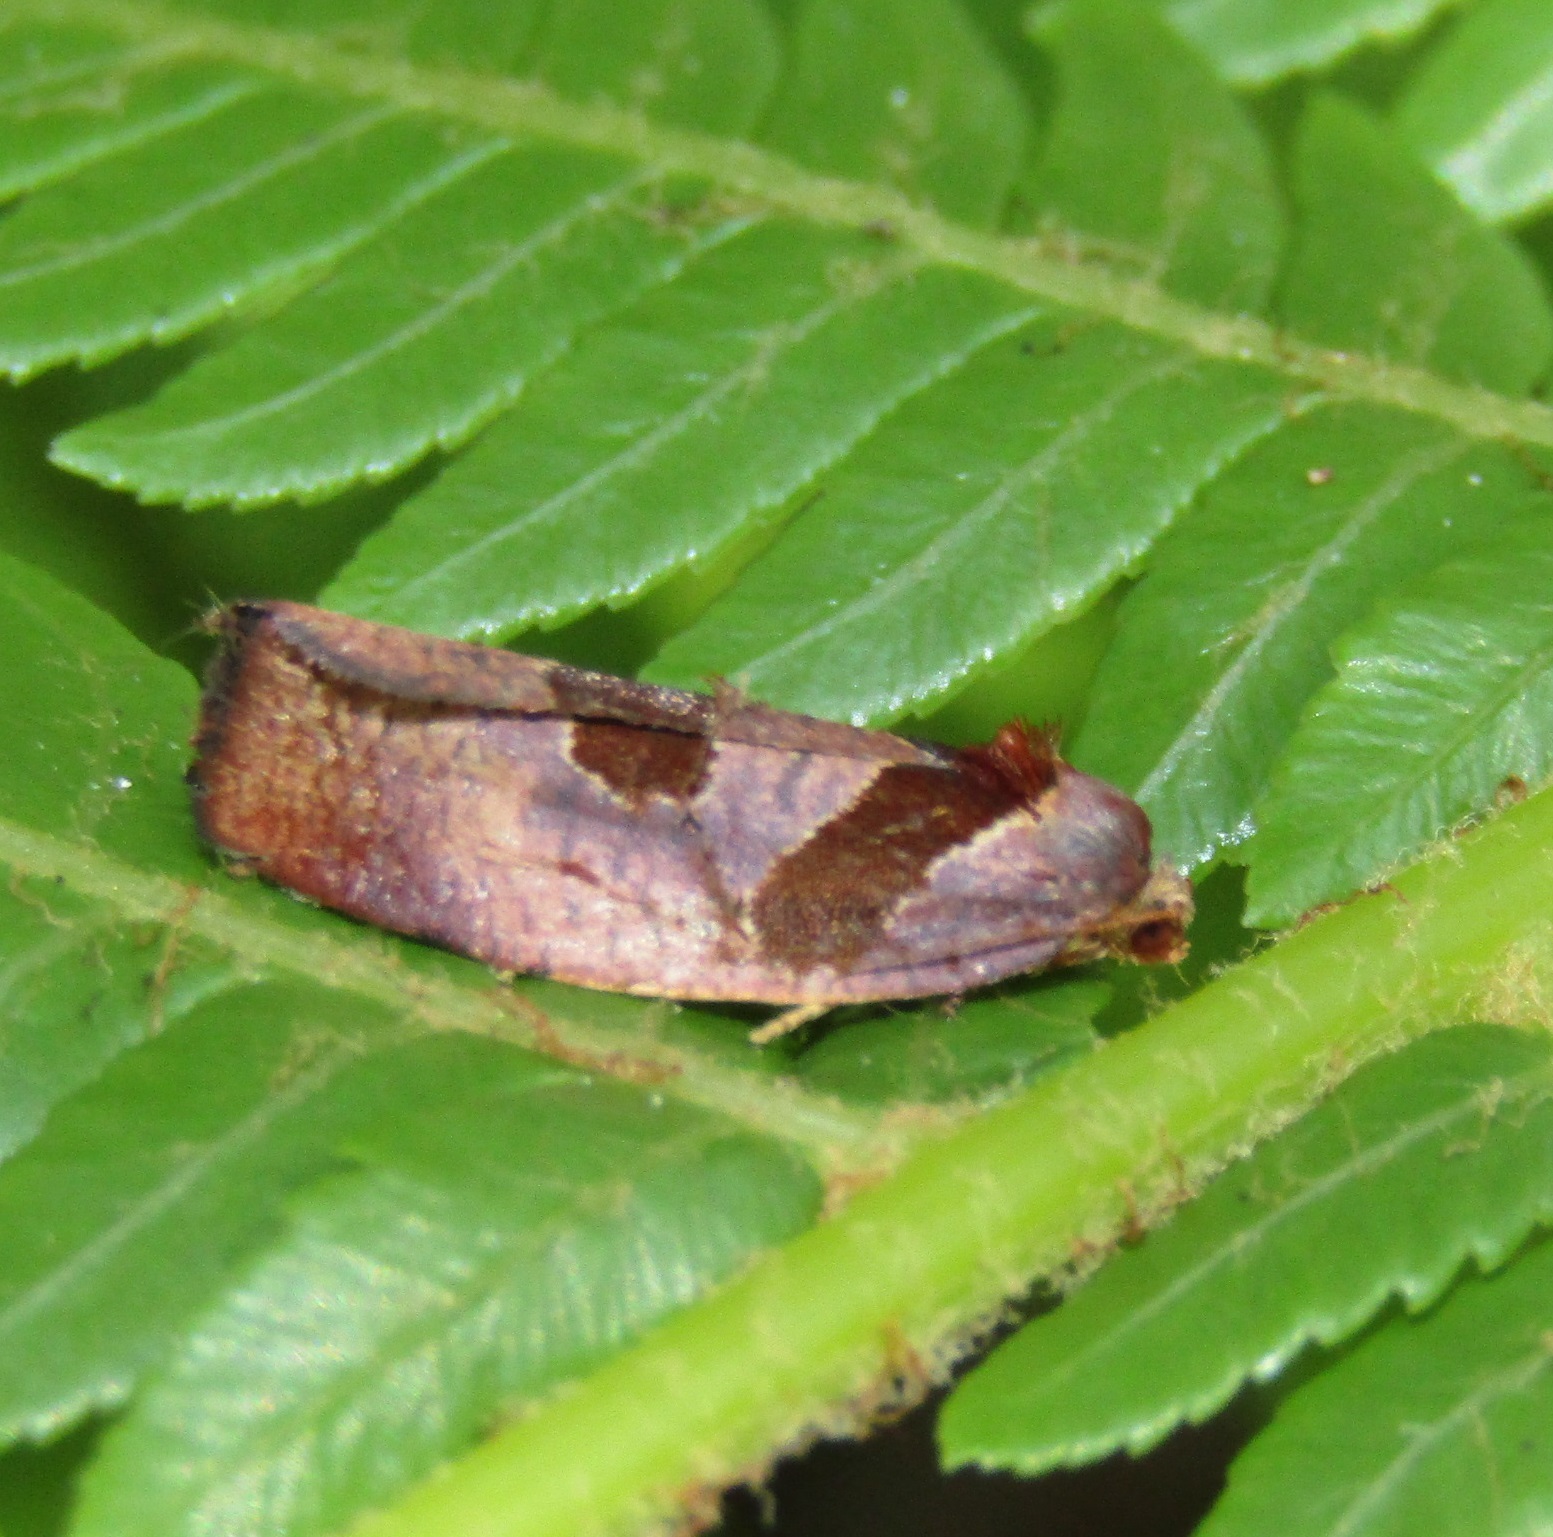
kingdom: Animalia
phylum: Arthropoda
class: Insecta
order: Lepidoptera
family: Tortricidae
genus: Ochetarcha
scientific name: Ochetarcha
